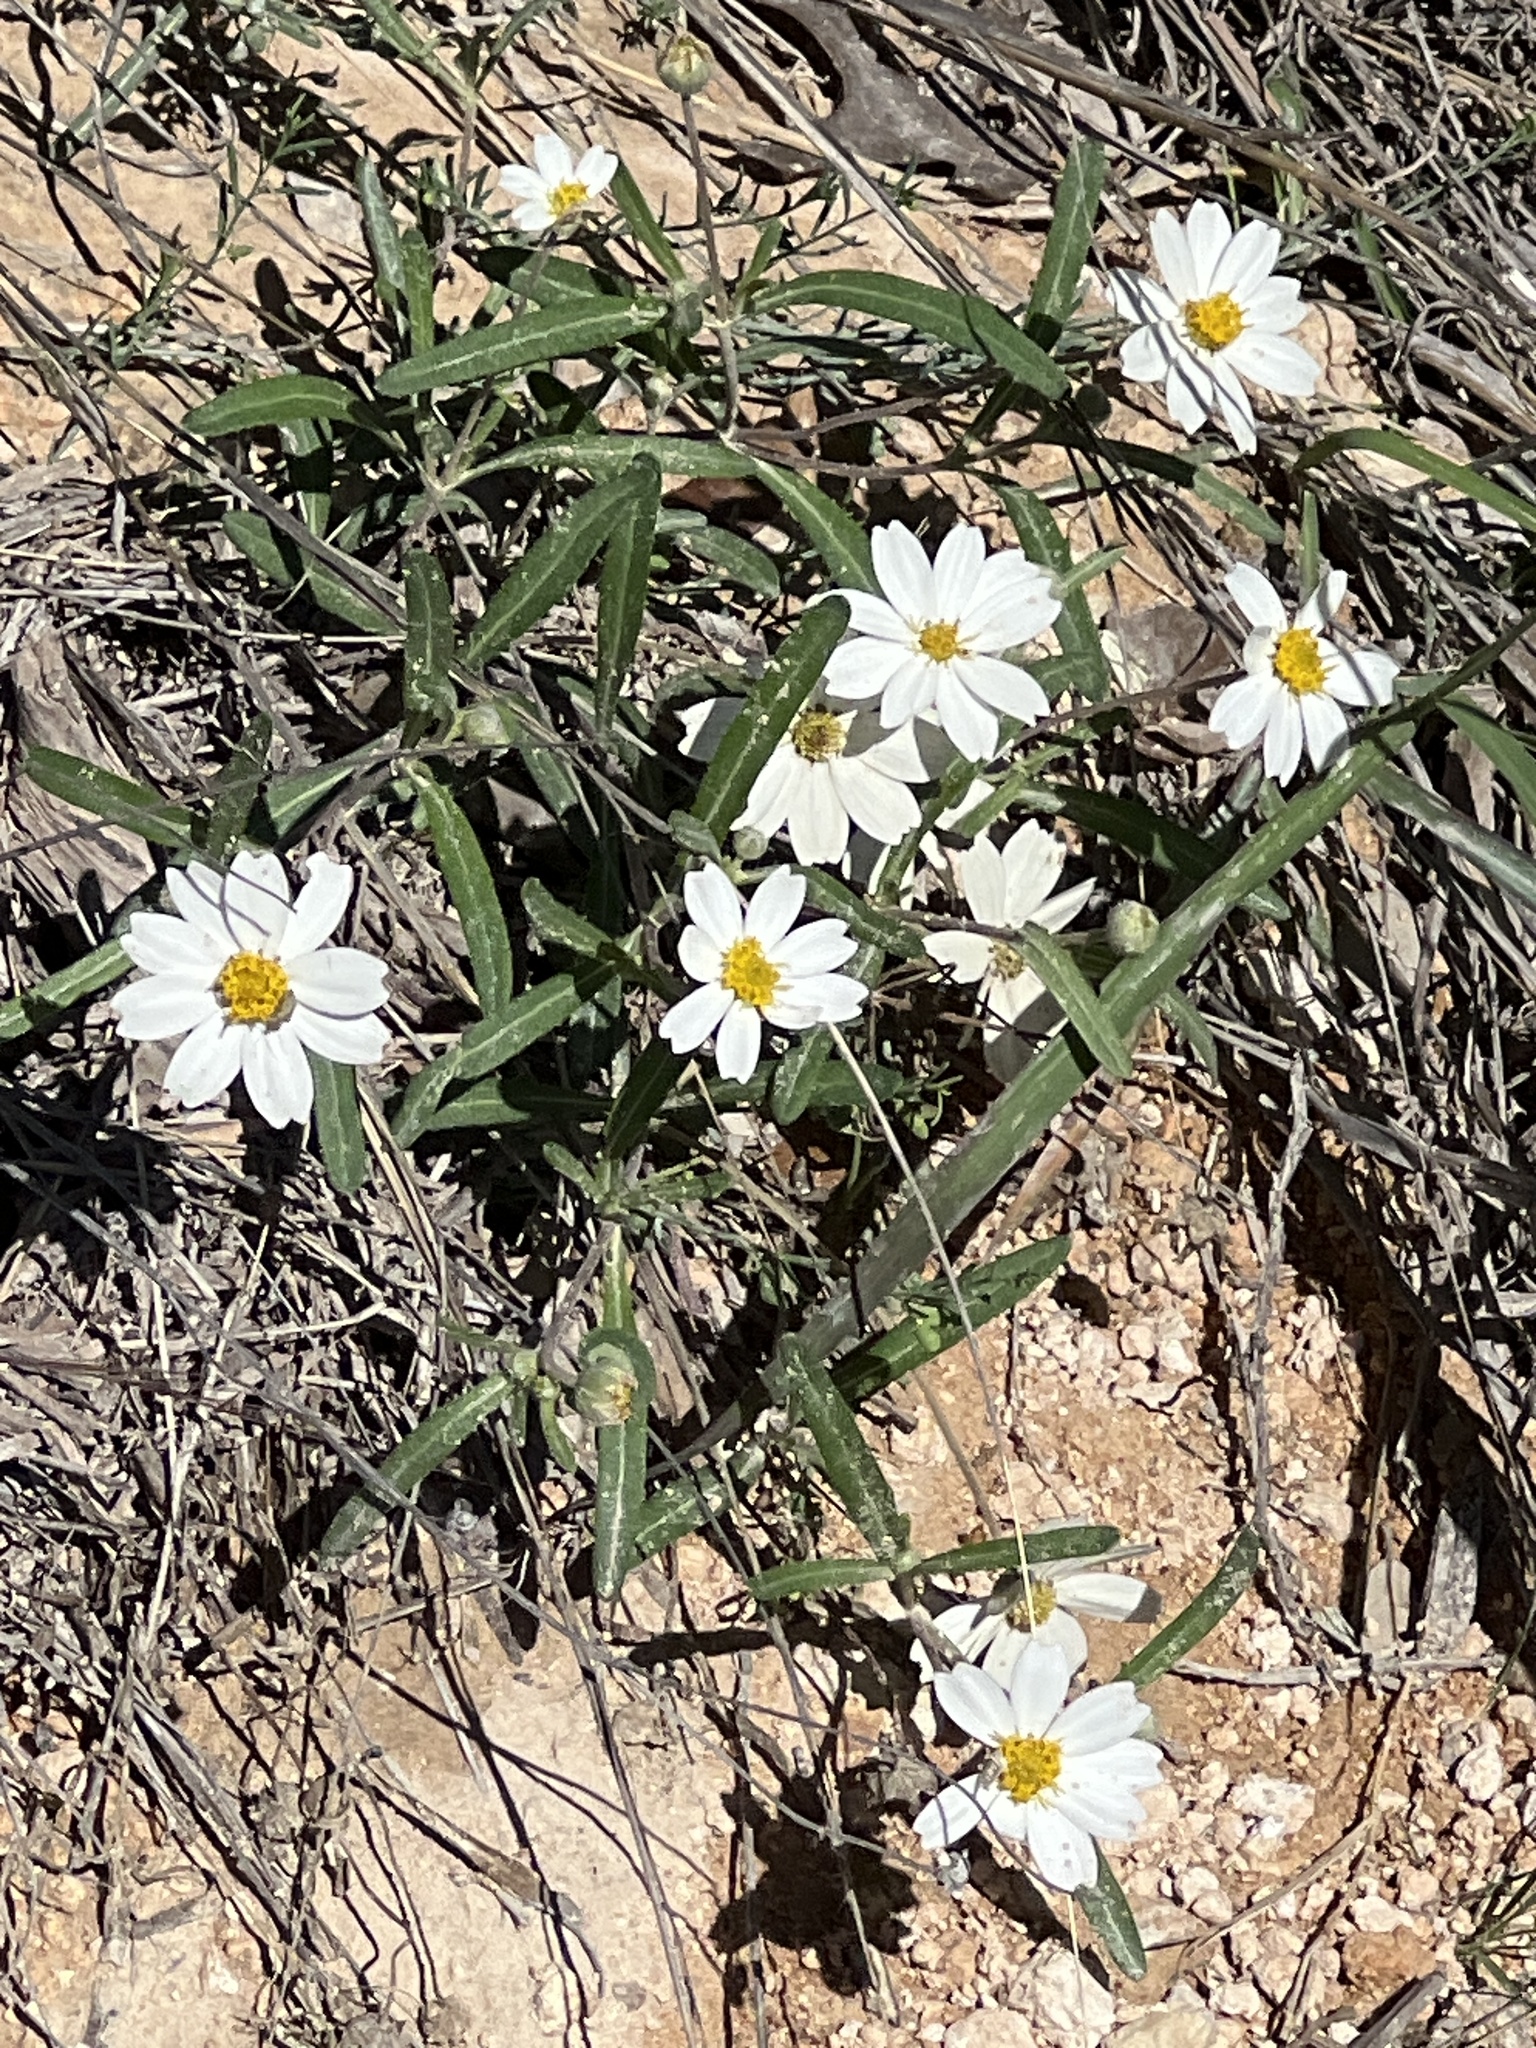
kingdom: Plantae
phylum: Tracheophyta
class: Magnoliopsida
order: Asterales
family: Asteraceae
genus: Melampodium
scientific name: Melampodium leucanthum
